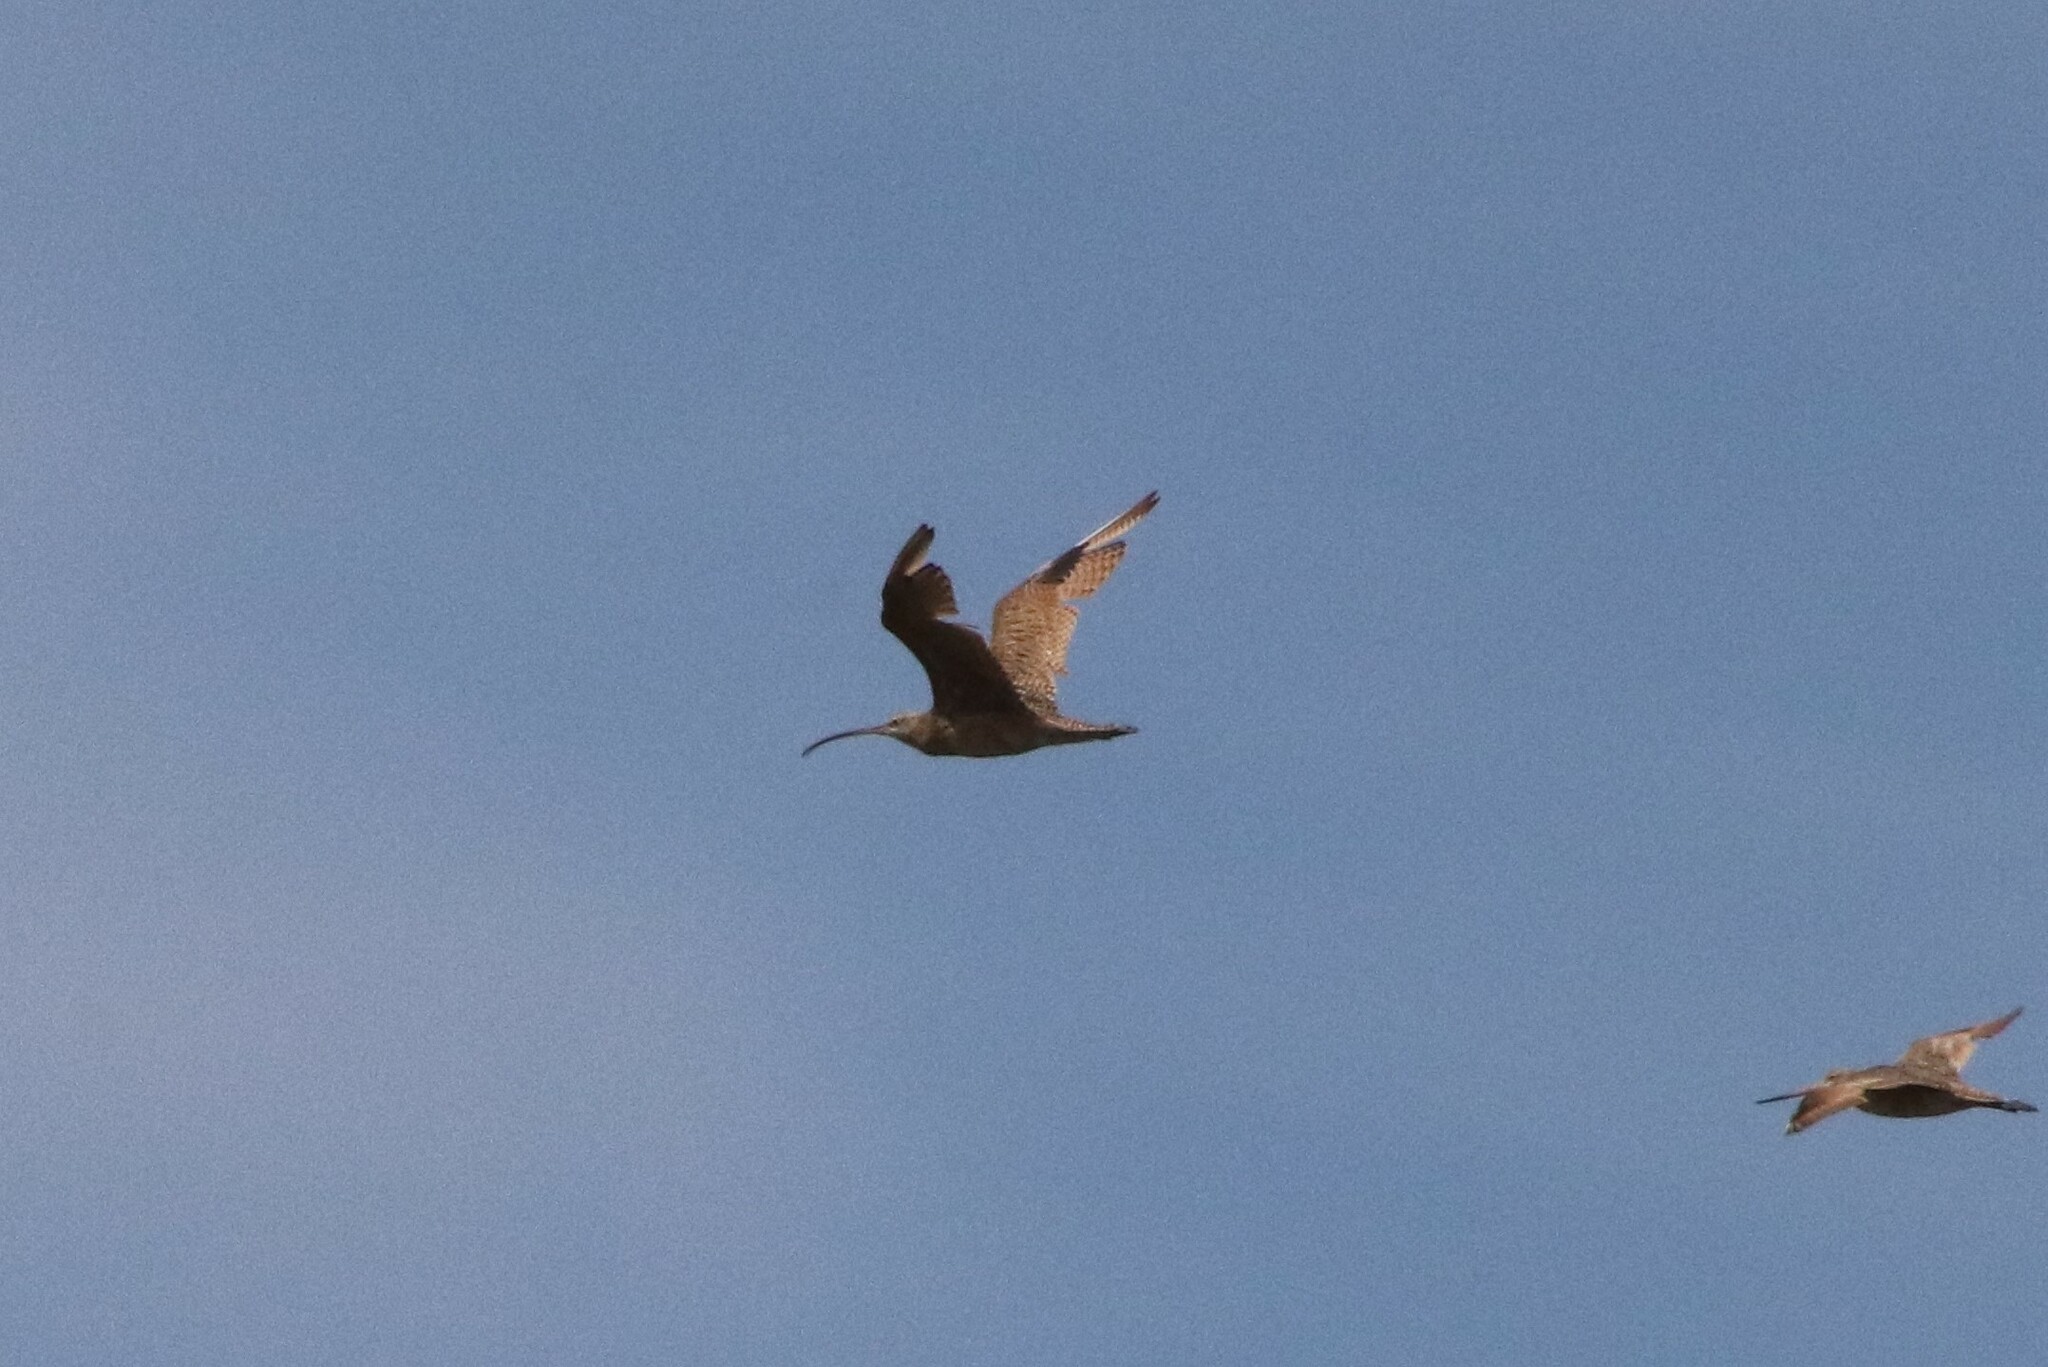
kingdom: Animalia
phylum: Chordata
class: Aves
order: Charadriiformes
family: Scolopacidae
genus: Numenius
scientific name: Numenius americanus
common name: Long-billed curlew
